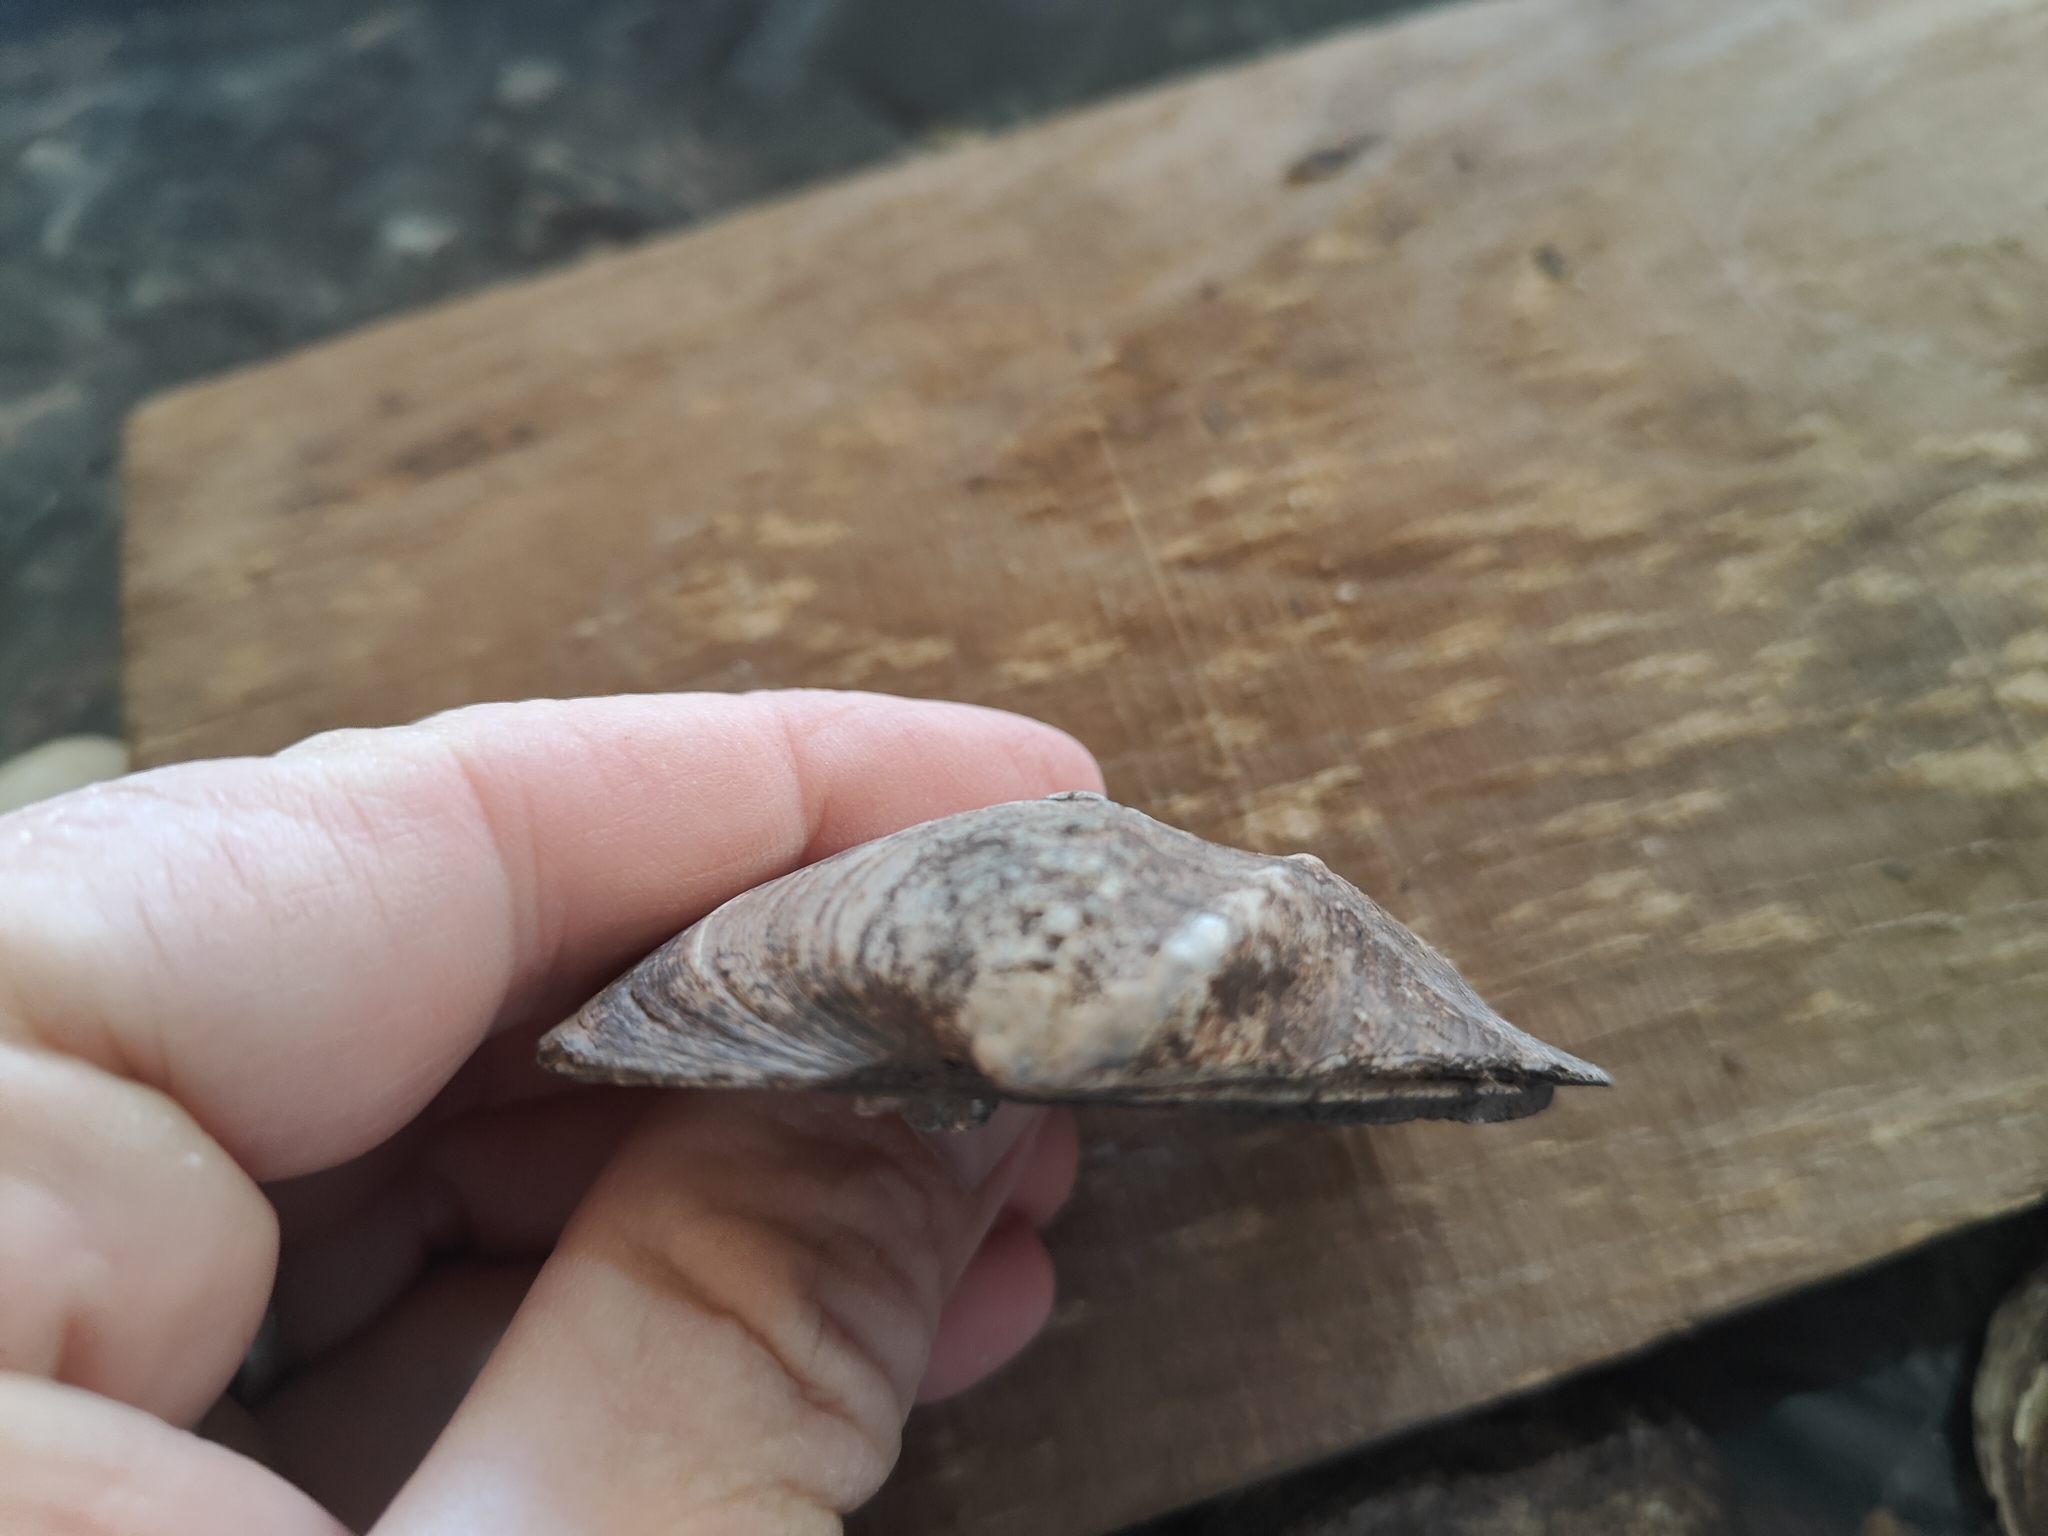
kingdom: Animalia
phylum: Mollusca
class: Bivalvia
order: Unionida
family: Unionidae
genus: Quadrula
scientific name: Quadrula quadrula
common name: Mapleleaf
